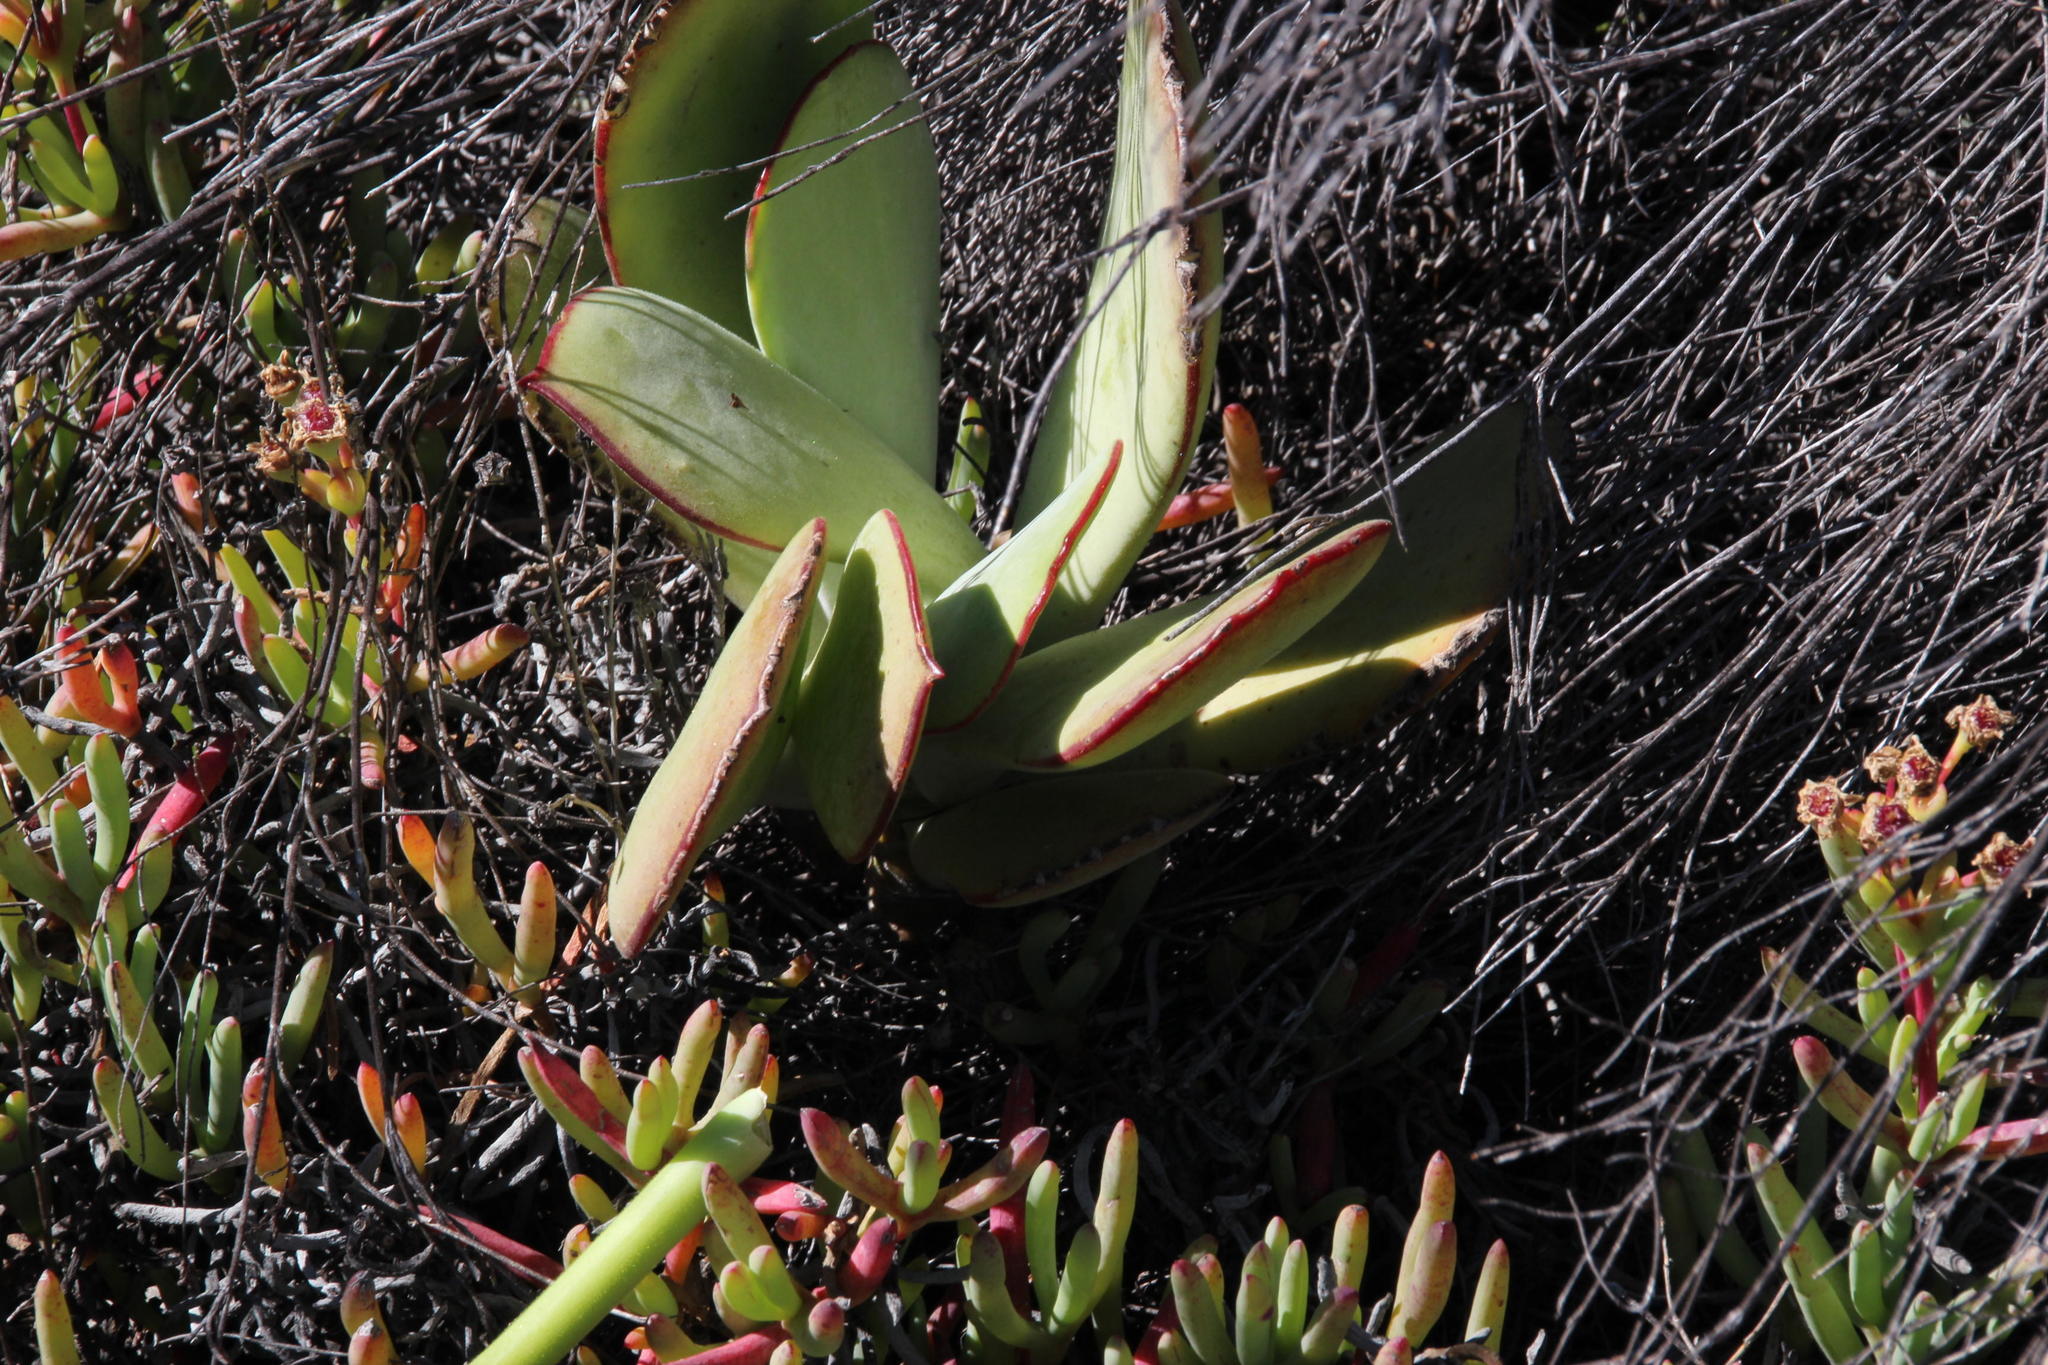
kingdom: Plantae
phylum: Tracheophyta
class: Magnoliopsida
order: Saxifragales
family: Crassulaceae
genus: Cotyledon
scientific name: Cotyledon orbiculata
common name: Pig's ear
